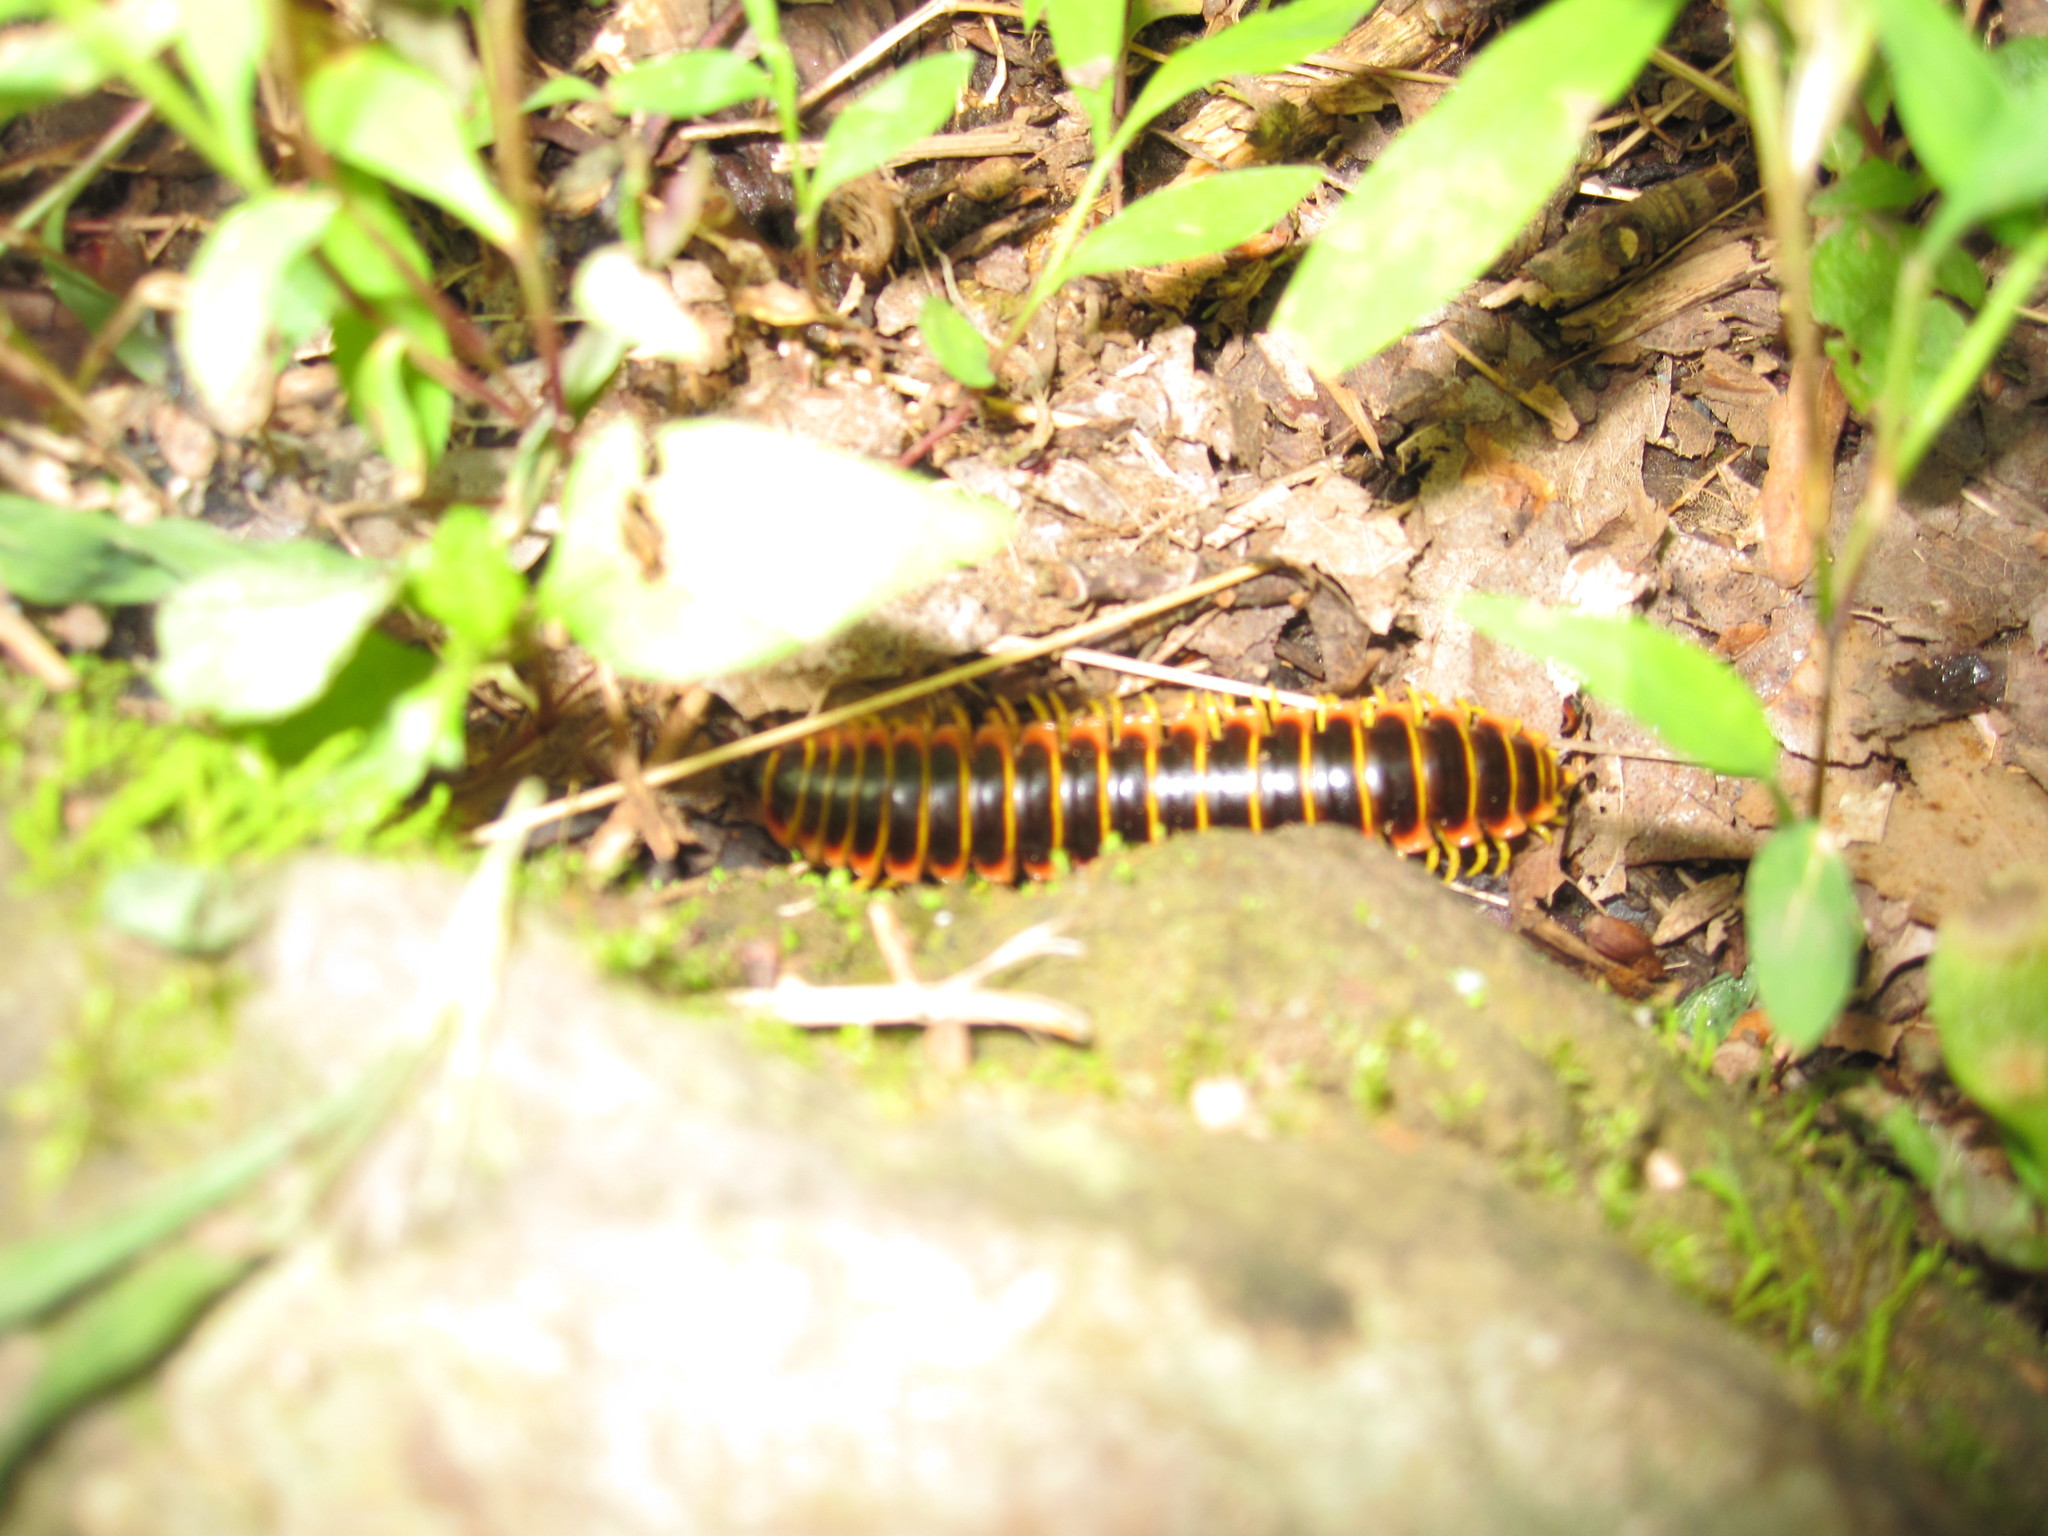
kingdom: Animalia
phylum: Arthropoda
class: Diplopoda
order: Polydesmida
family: Xystodesmidae
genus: Apheloria
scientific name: Apheloria virginiensis
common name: Black-and-gold flat millipede
